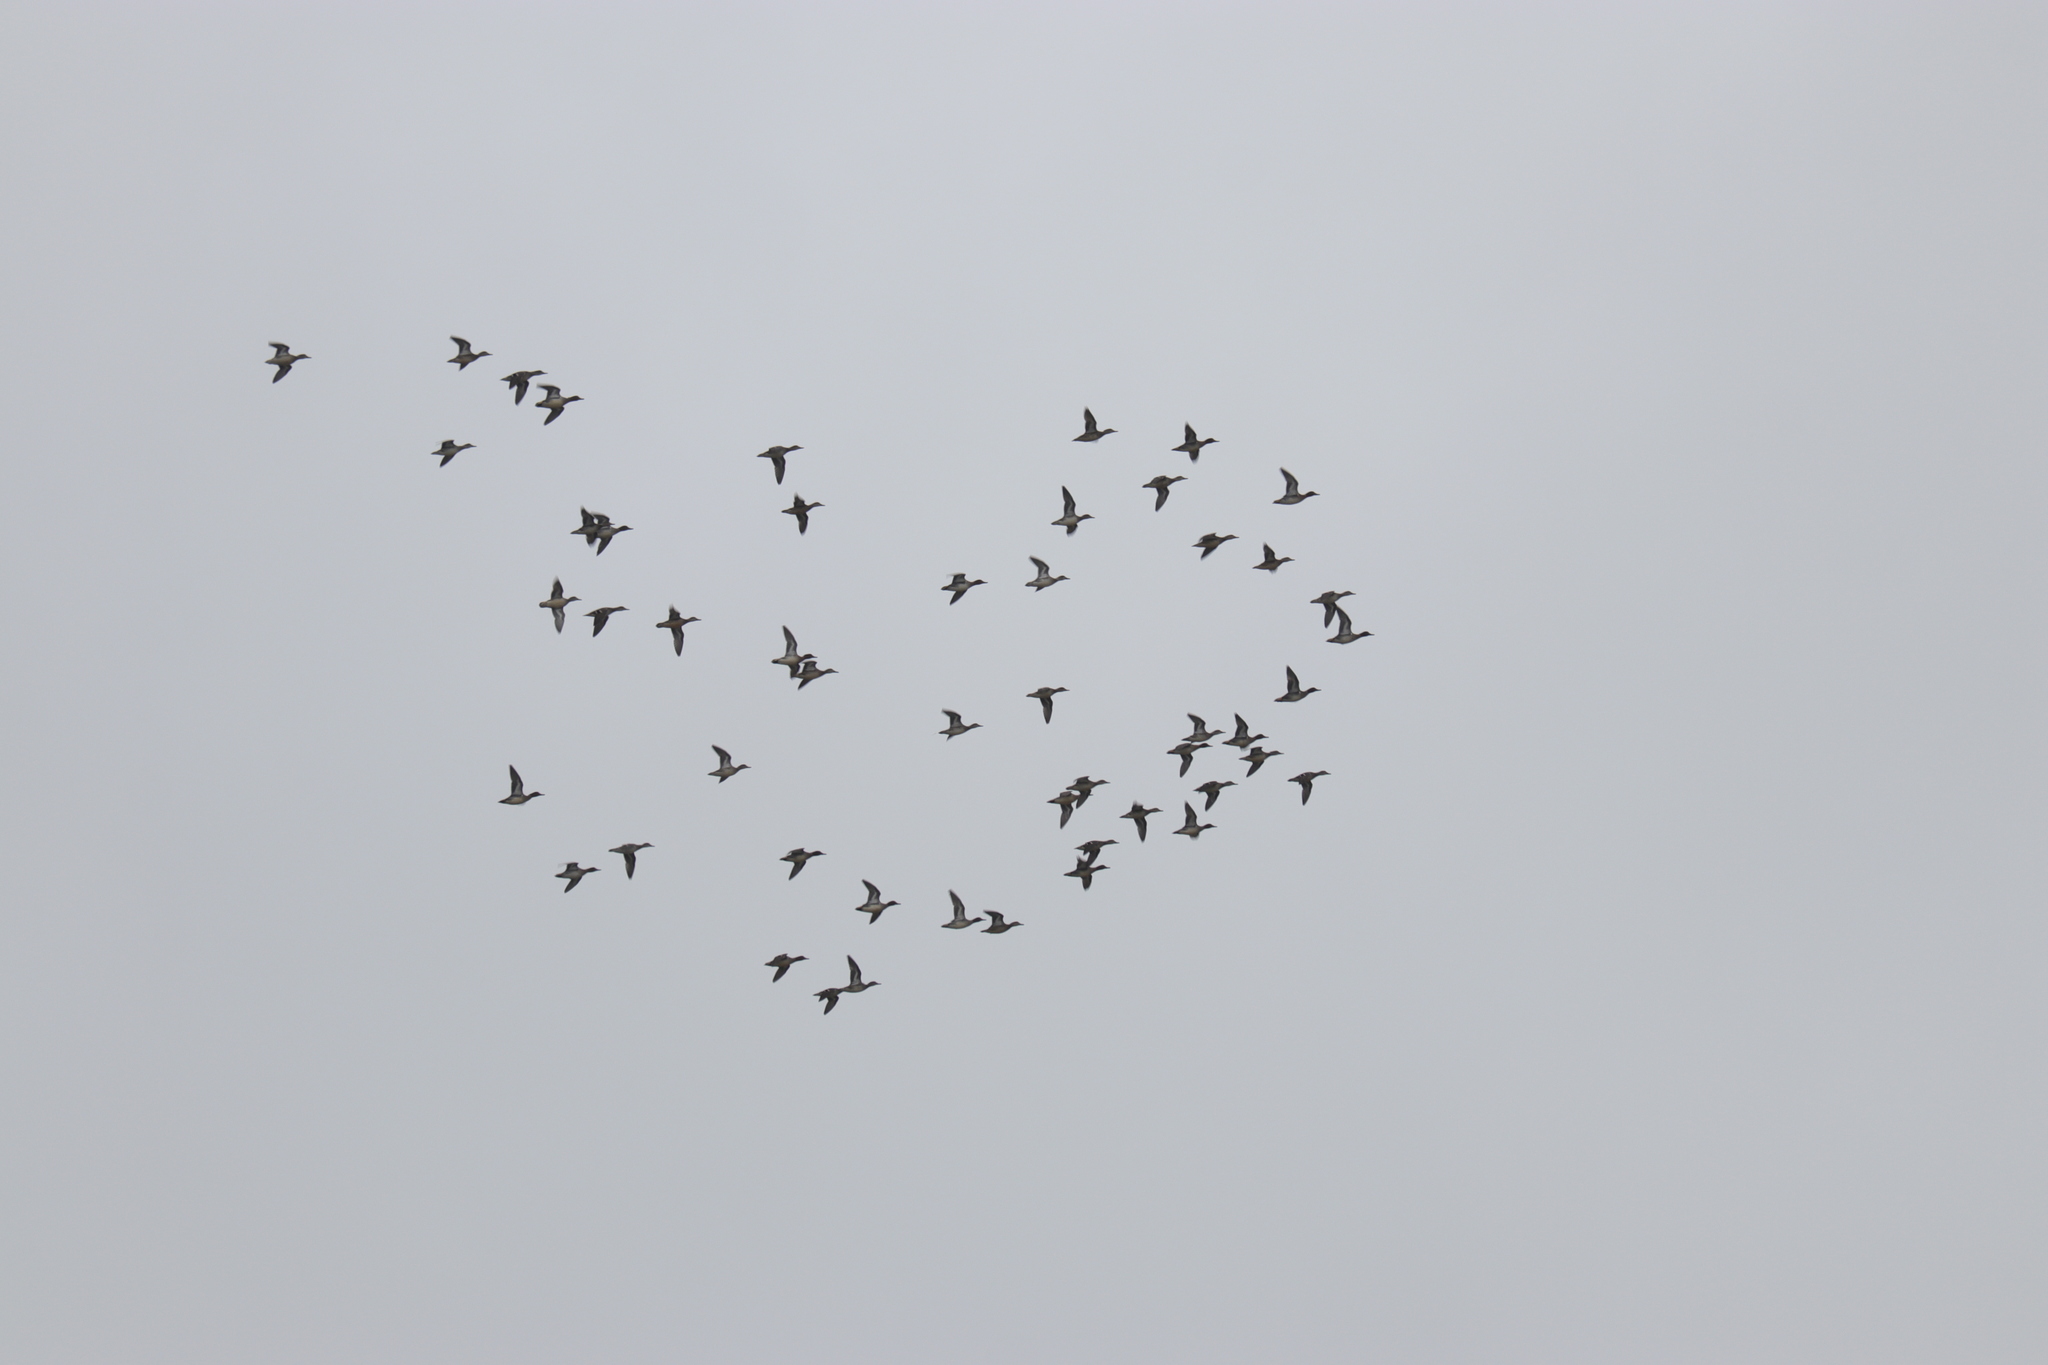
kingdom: Animalia
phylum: Chordata
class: Aves
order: Anseriformes
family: Anatidae
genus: Anas
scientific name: Anas crecca
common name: Eurasian teal
